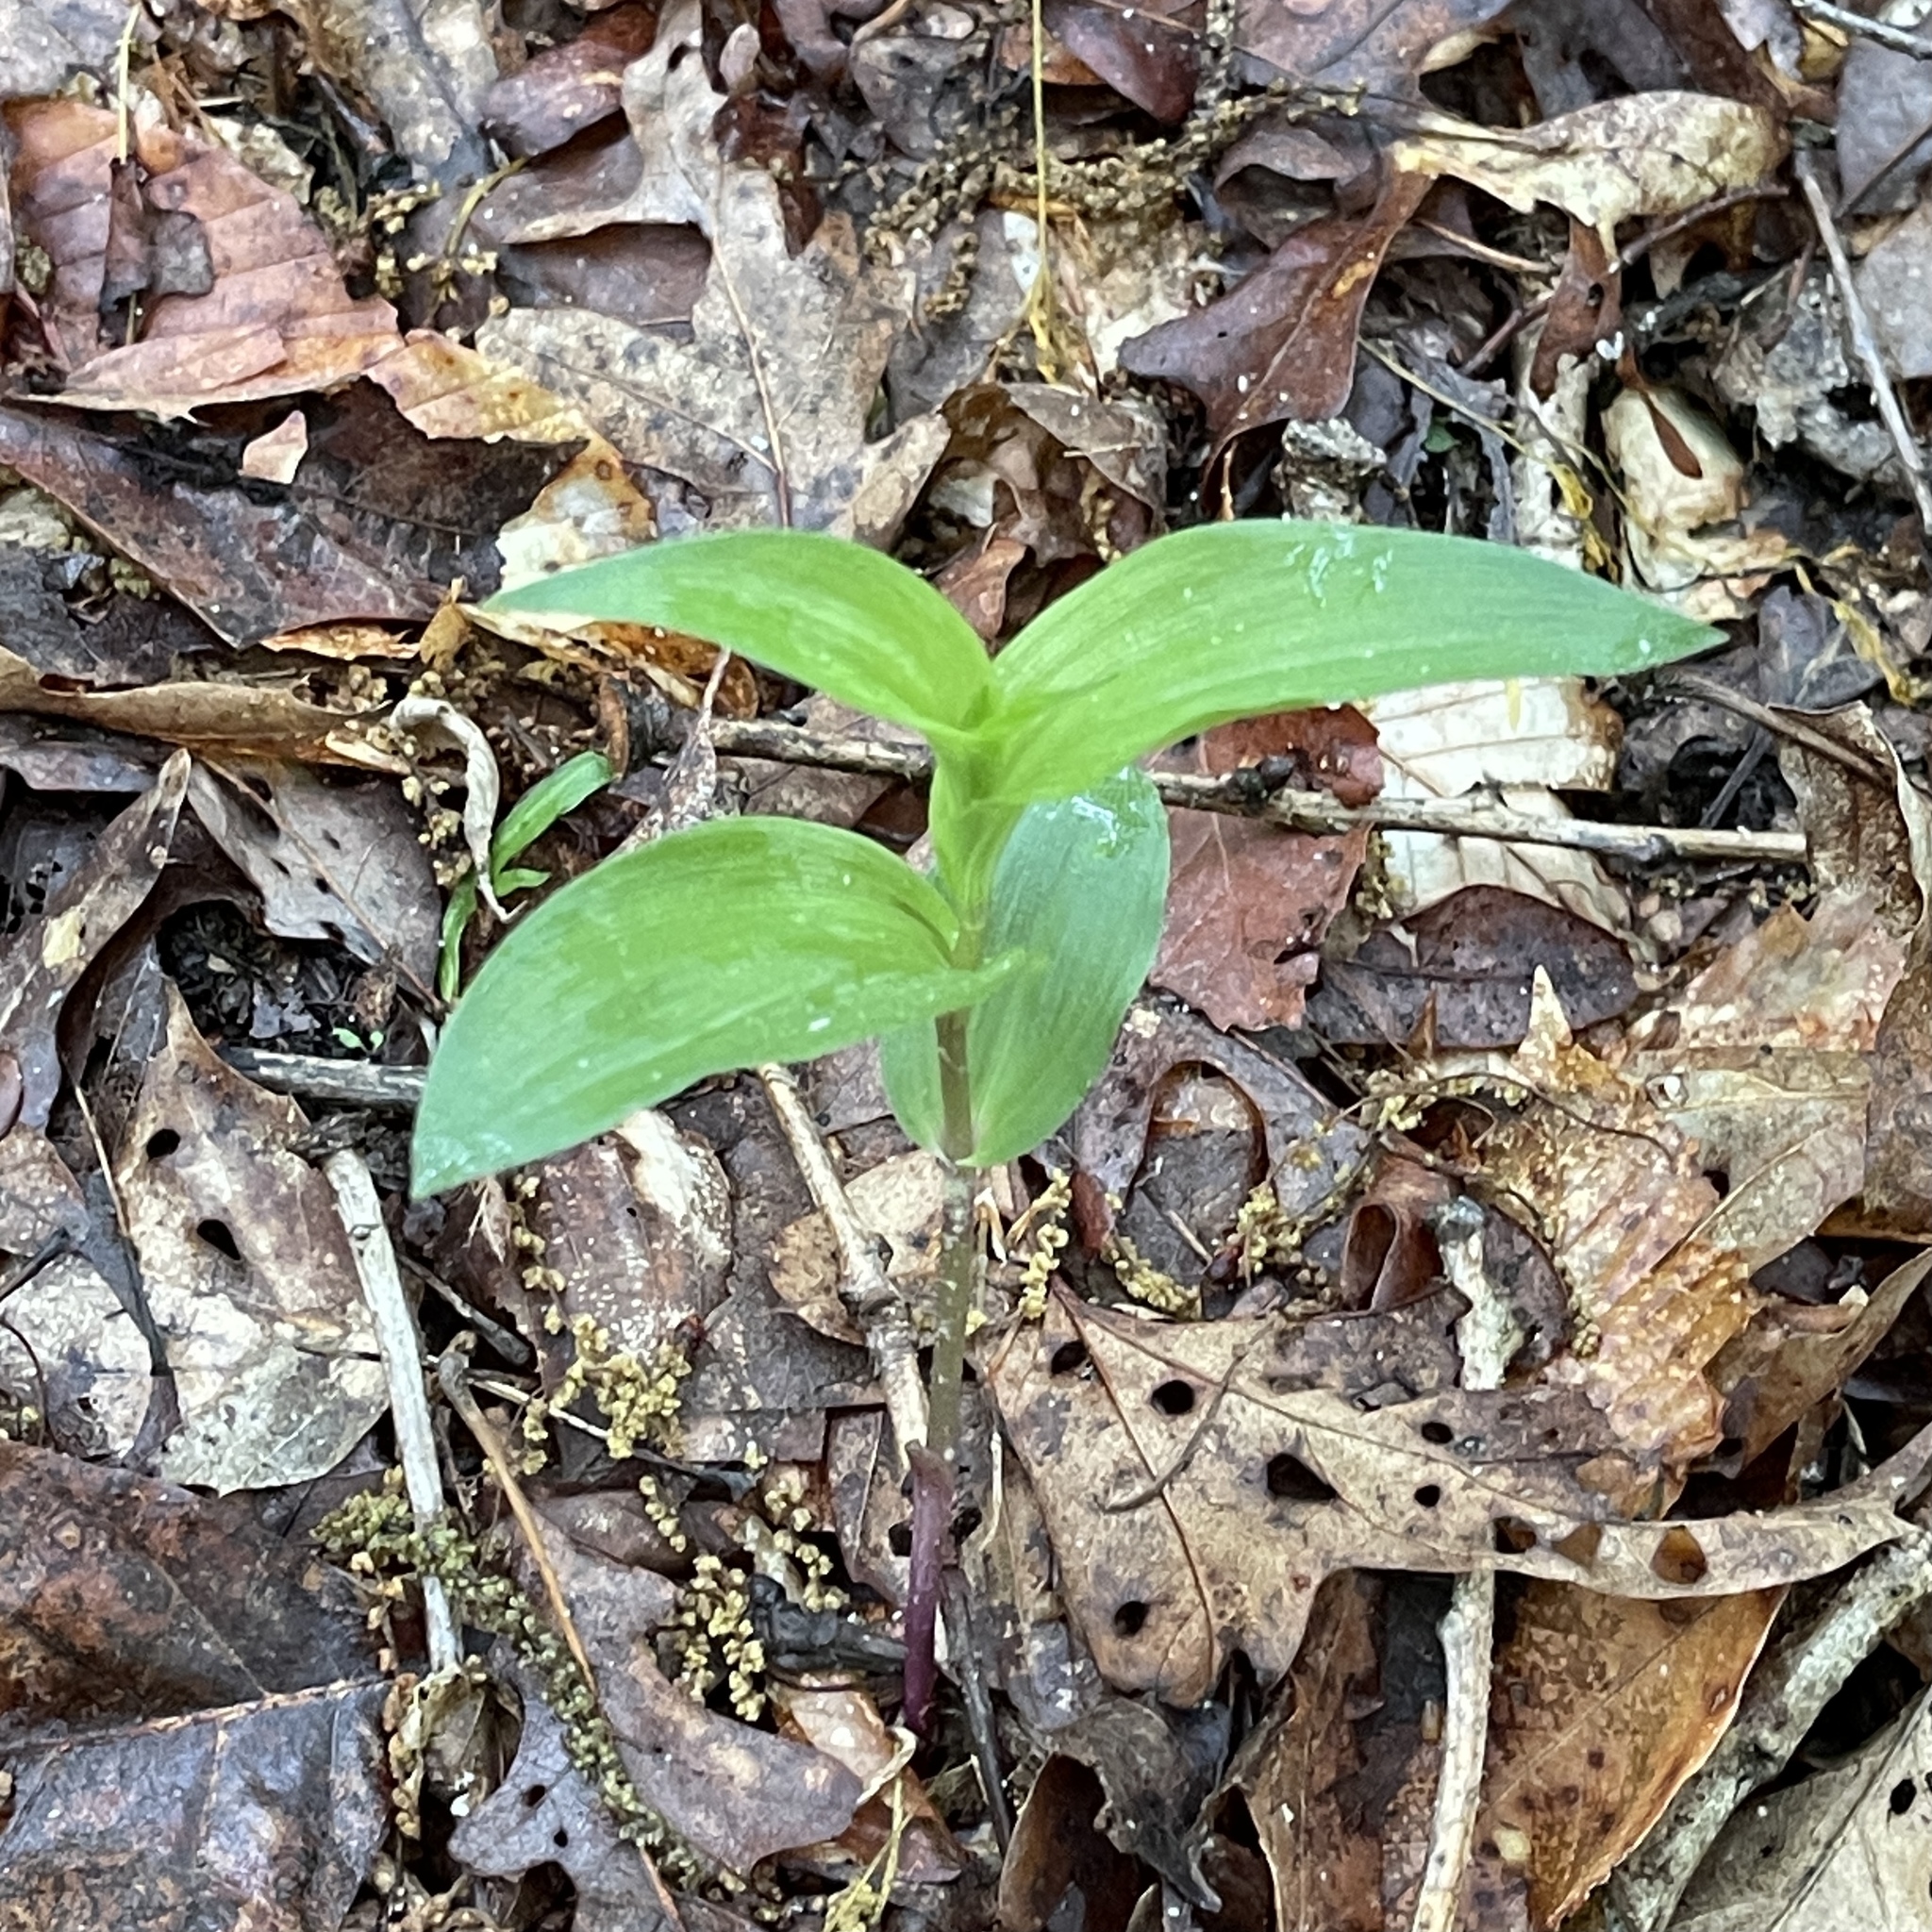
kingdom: Plantae
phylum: Tracheophyta
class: Liliopsida
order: Asparagales
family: Orchidaceae
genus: Epipactis
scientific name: Epipactis helleborine
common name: Broad-leaved helleborine
